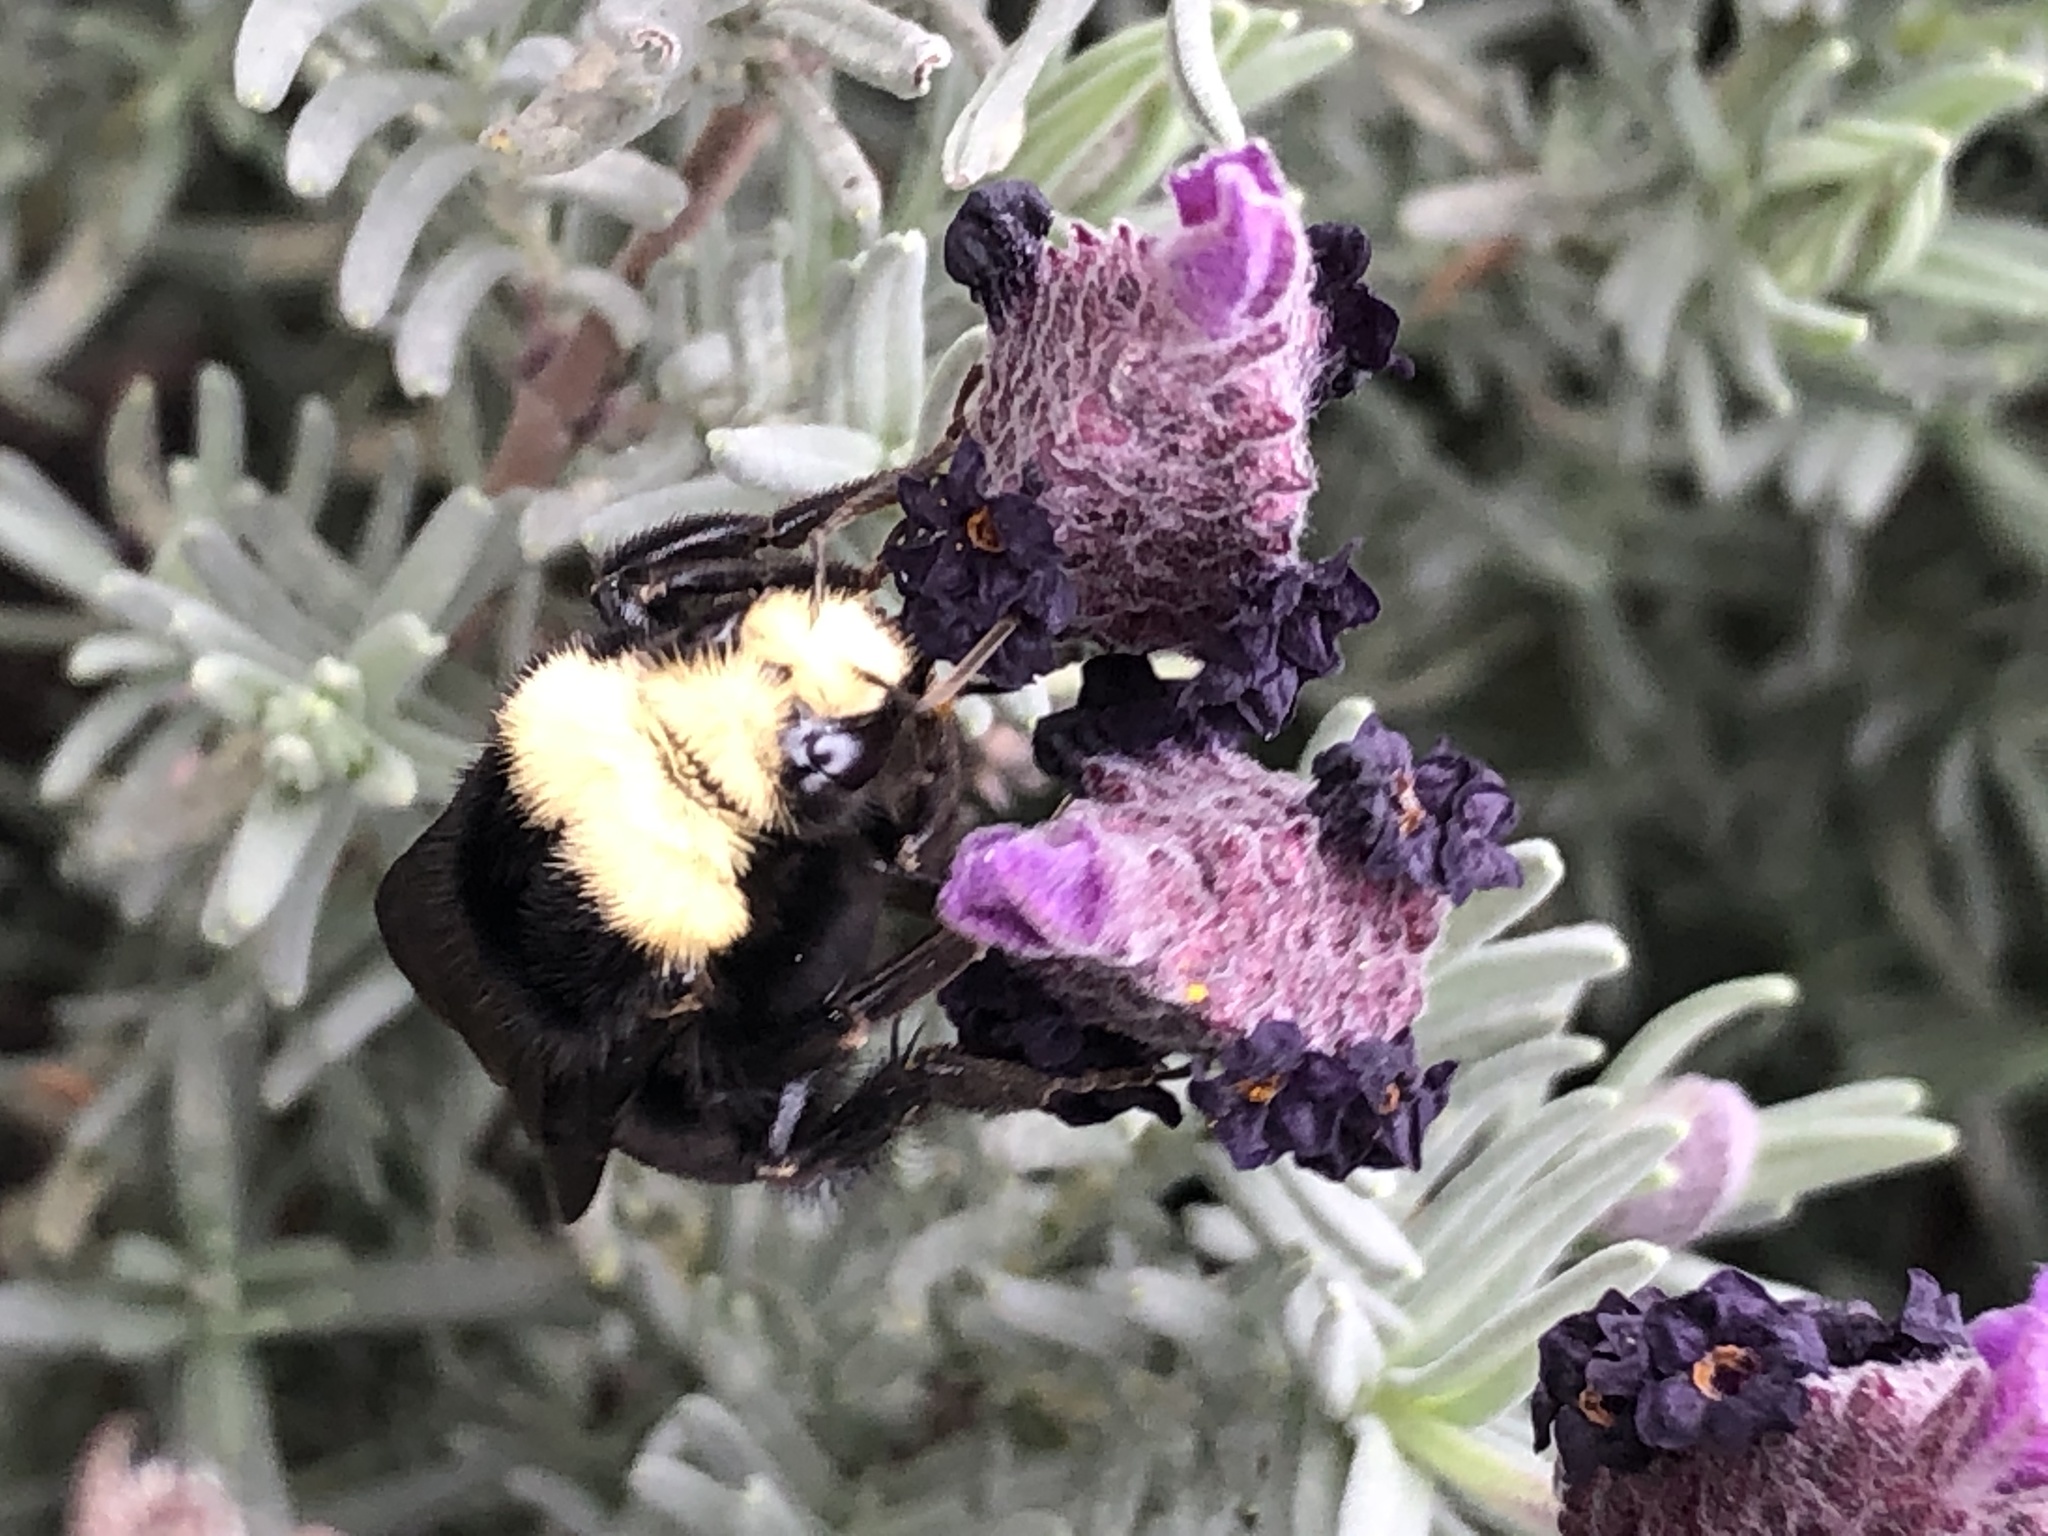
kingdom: Animalia
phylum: Arthropoda
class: Insecta
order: Hymenoptera
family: Apidae
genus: Bombus
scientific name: Bombus vosnesenskii
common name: Vosnesensky bumble bee
